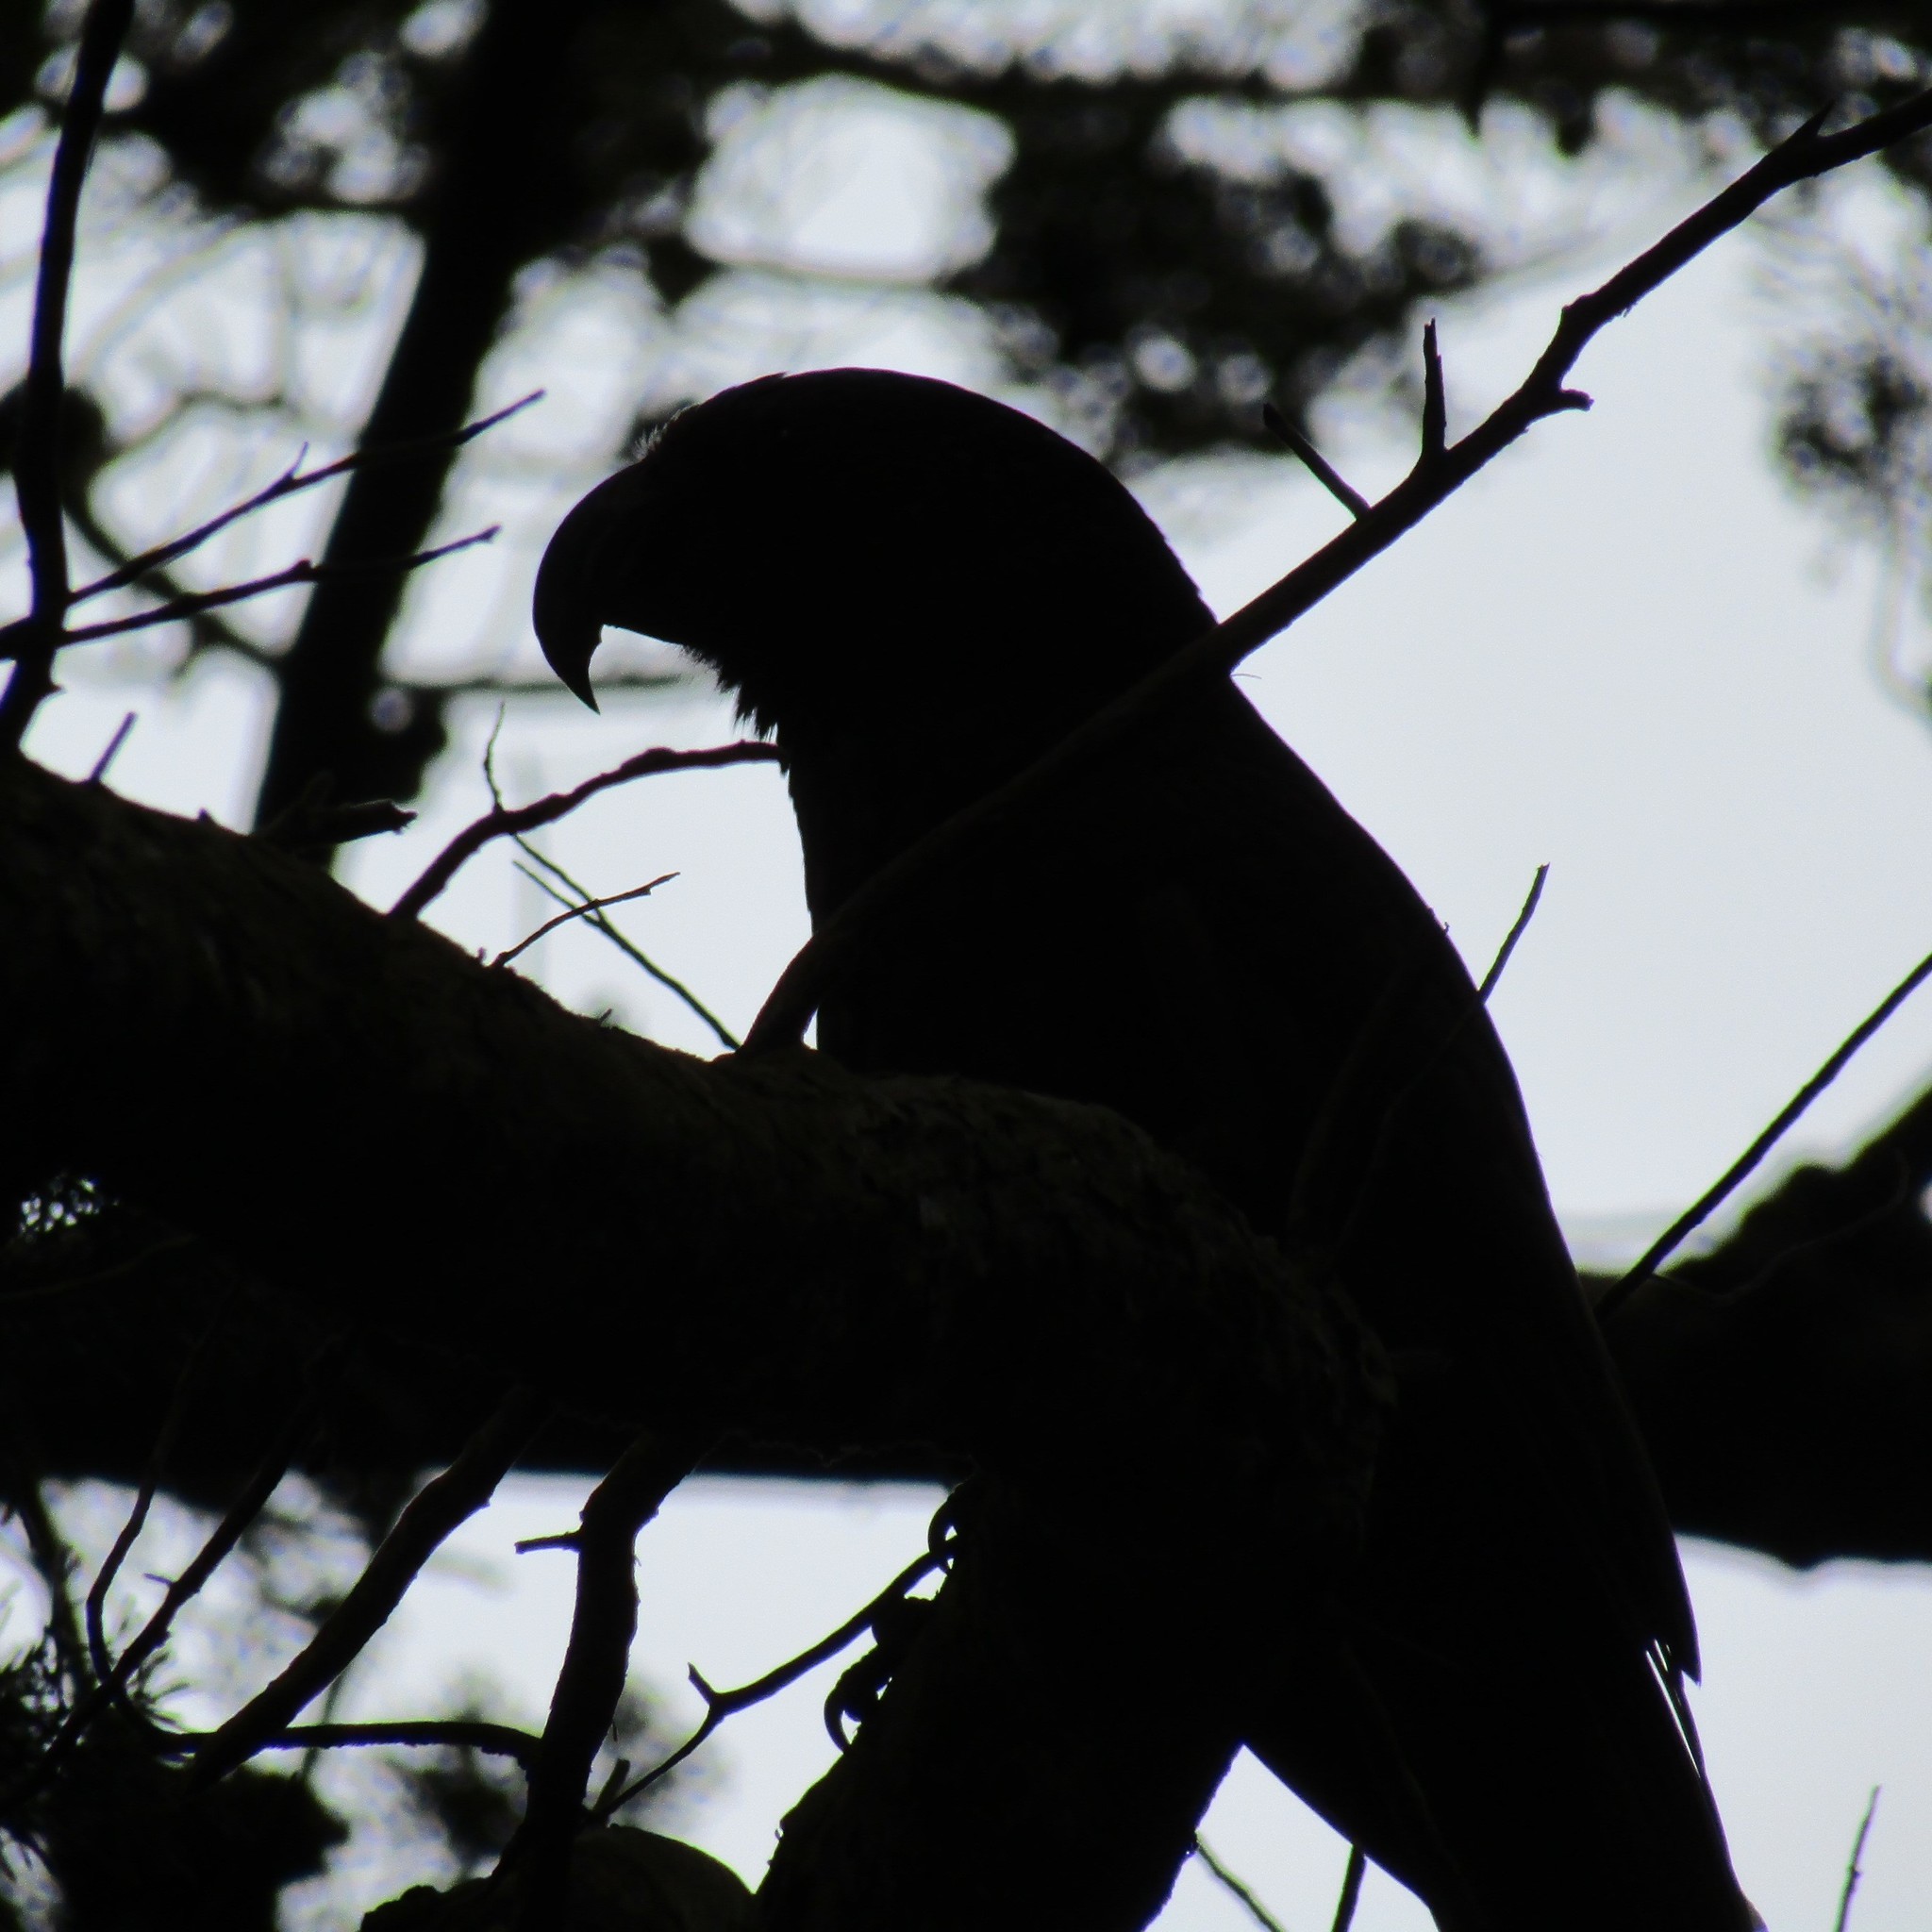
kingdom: Animalia
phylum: Chordata
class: Aves
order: Psittaciformes
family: Psittacidae
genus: Nestor
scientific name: Nestor meridionalis
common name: New zealand kaka
